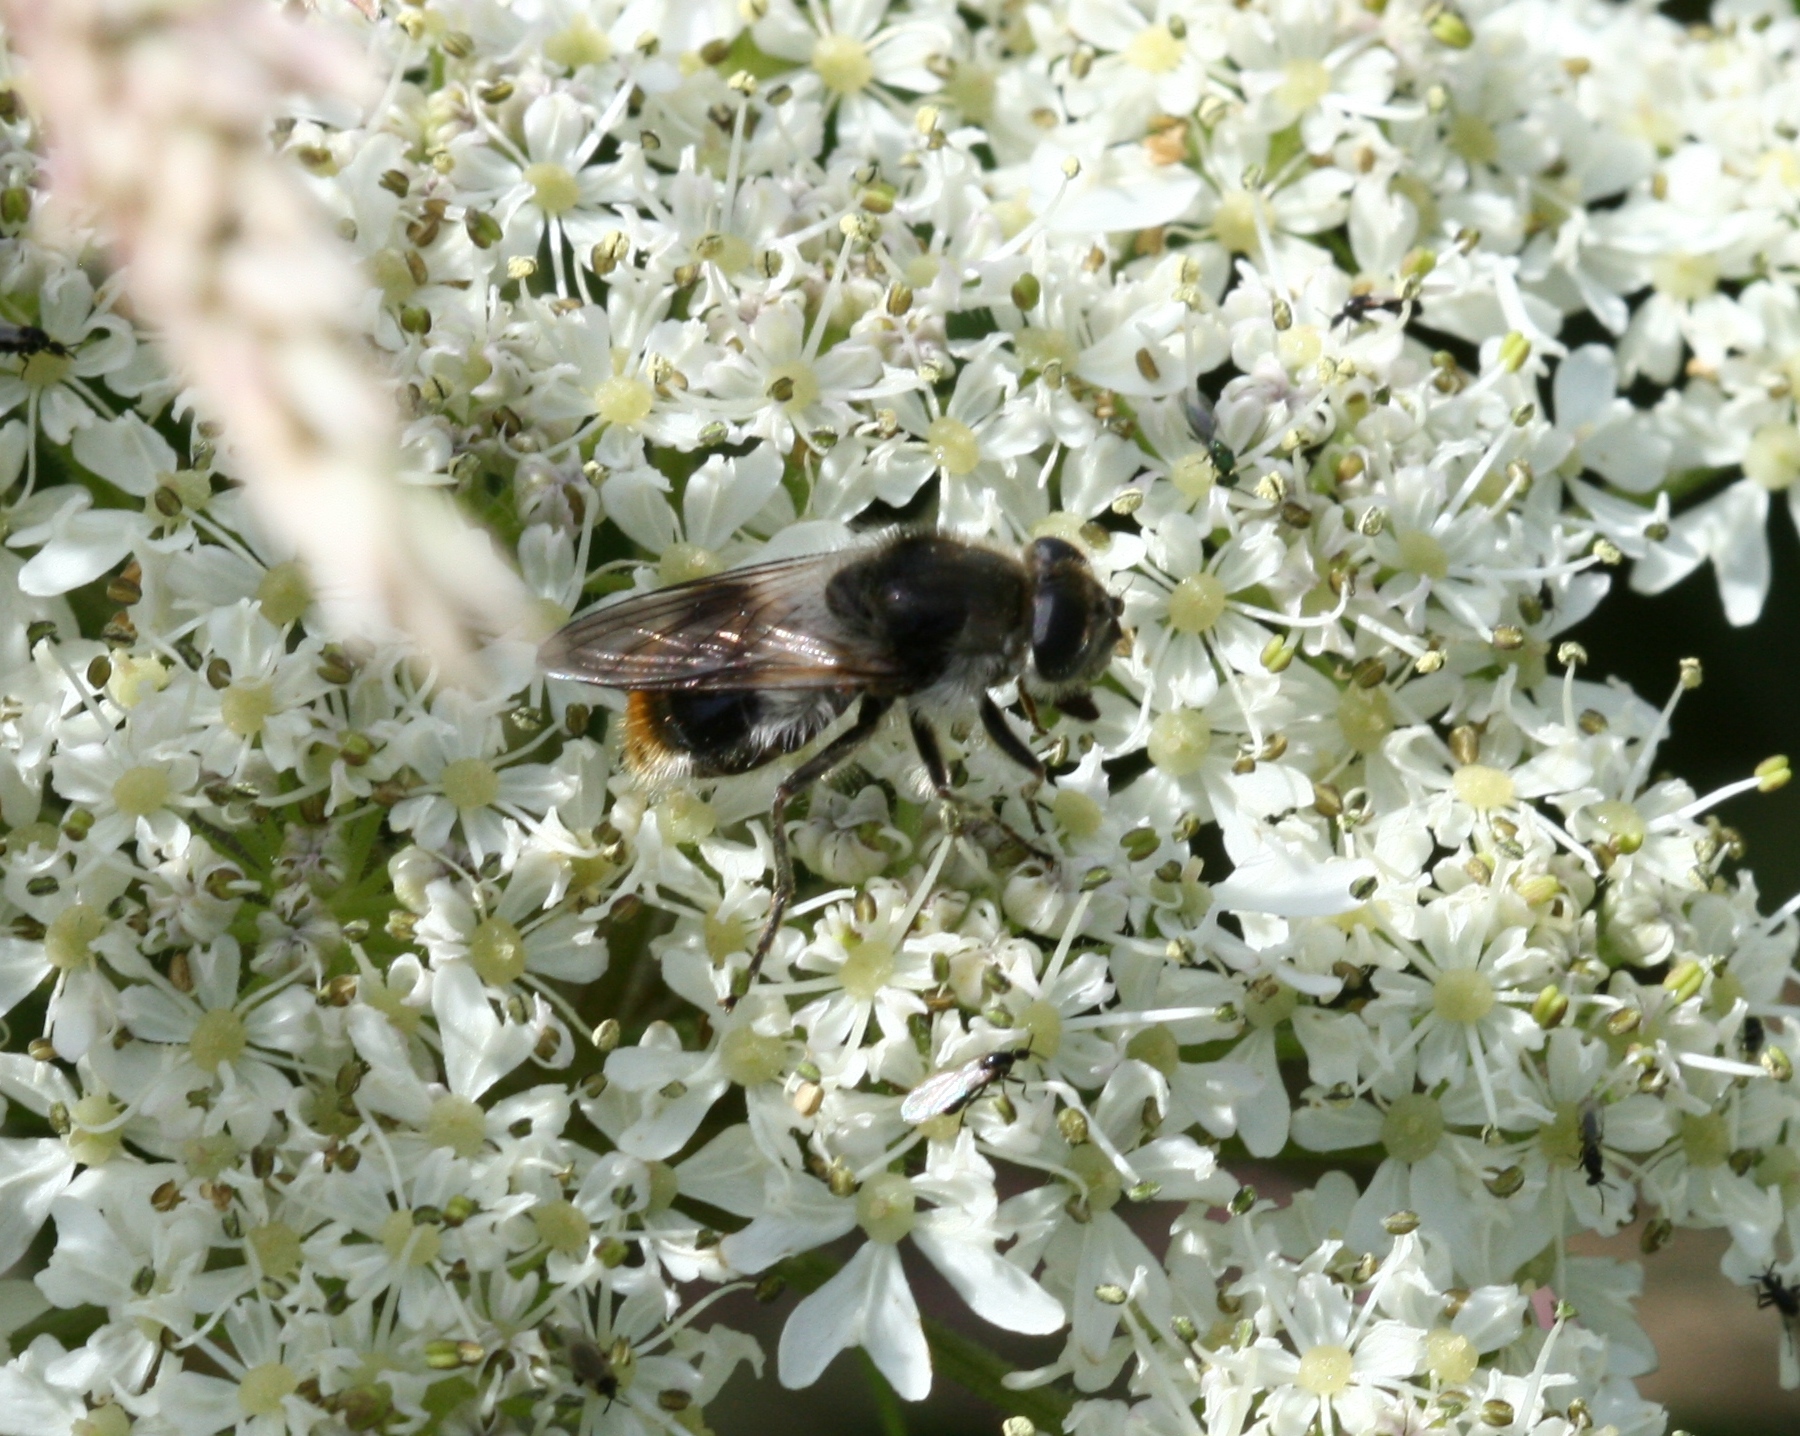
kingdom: Animalia
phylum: Arthropoda
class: Insecta
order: Diptera
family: Syrphidae
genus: Cheilosia
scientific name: Cheilosia illustrata
